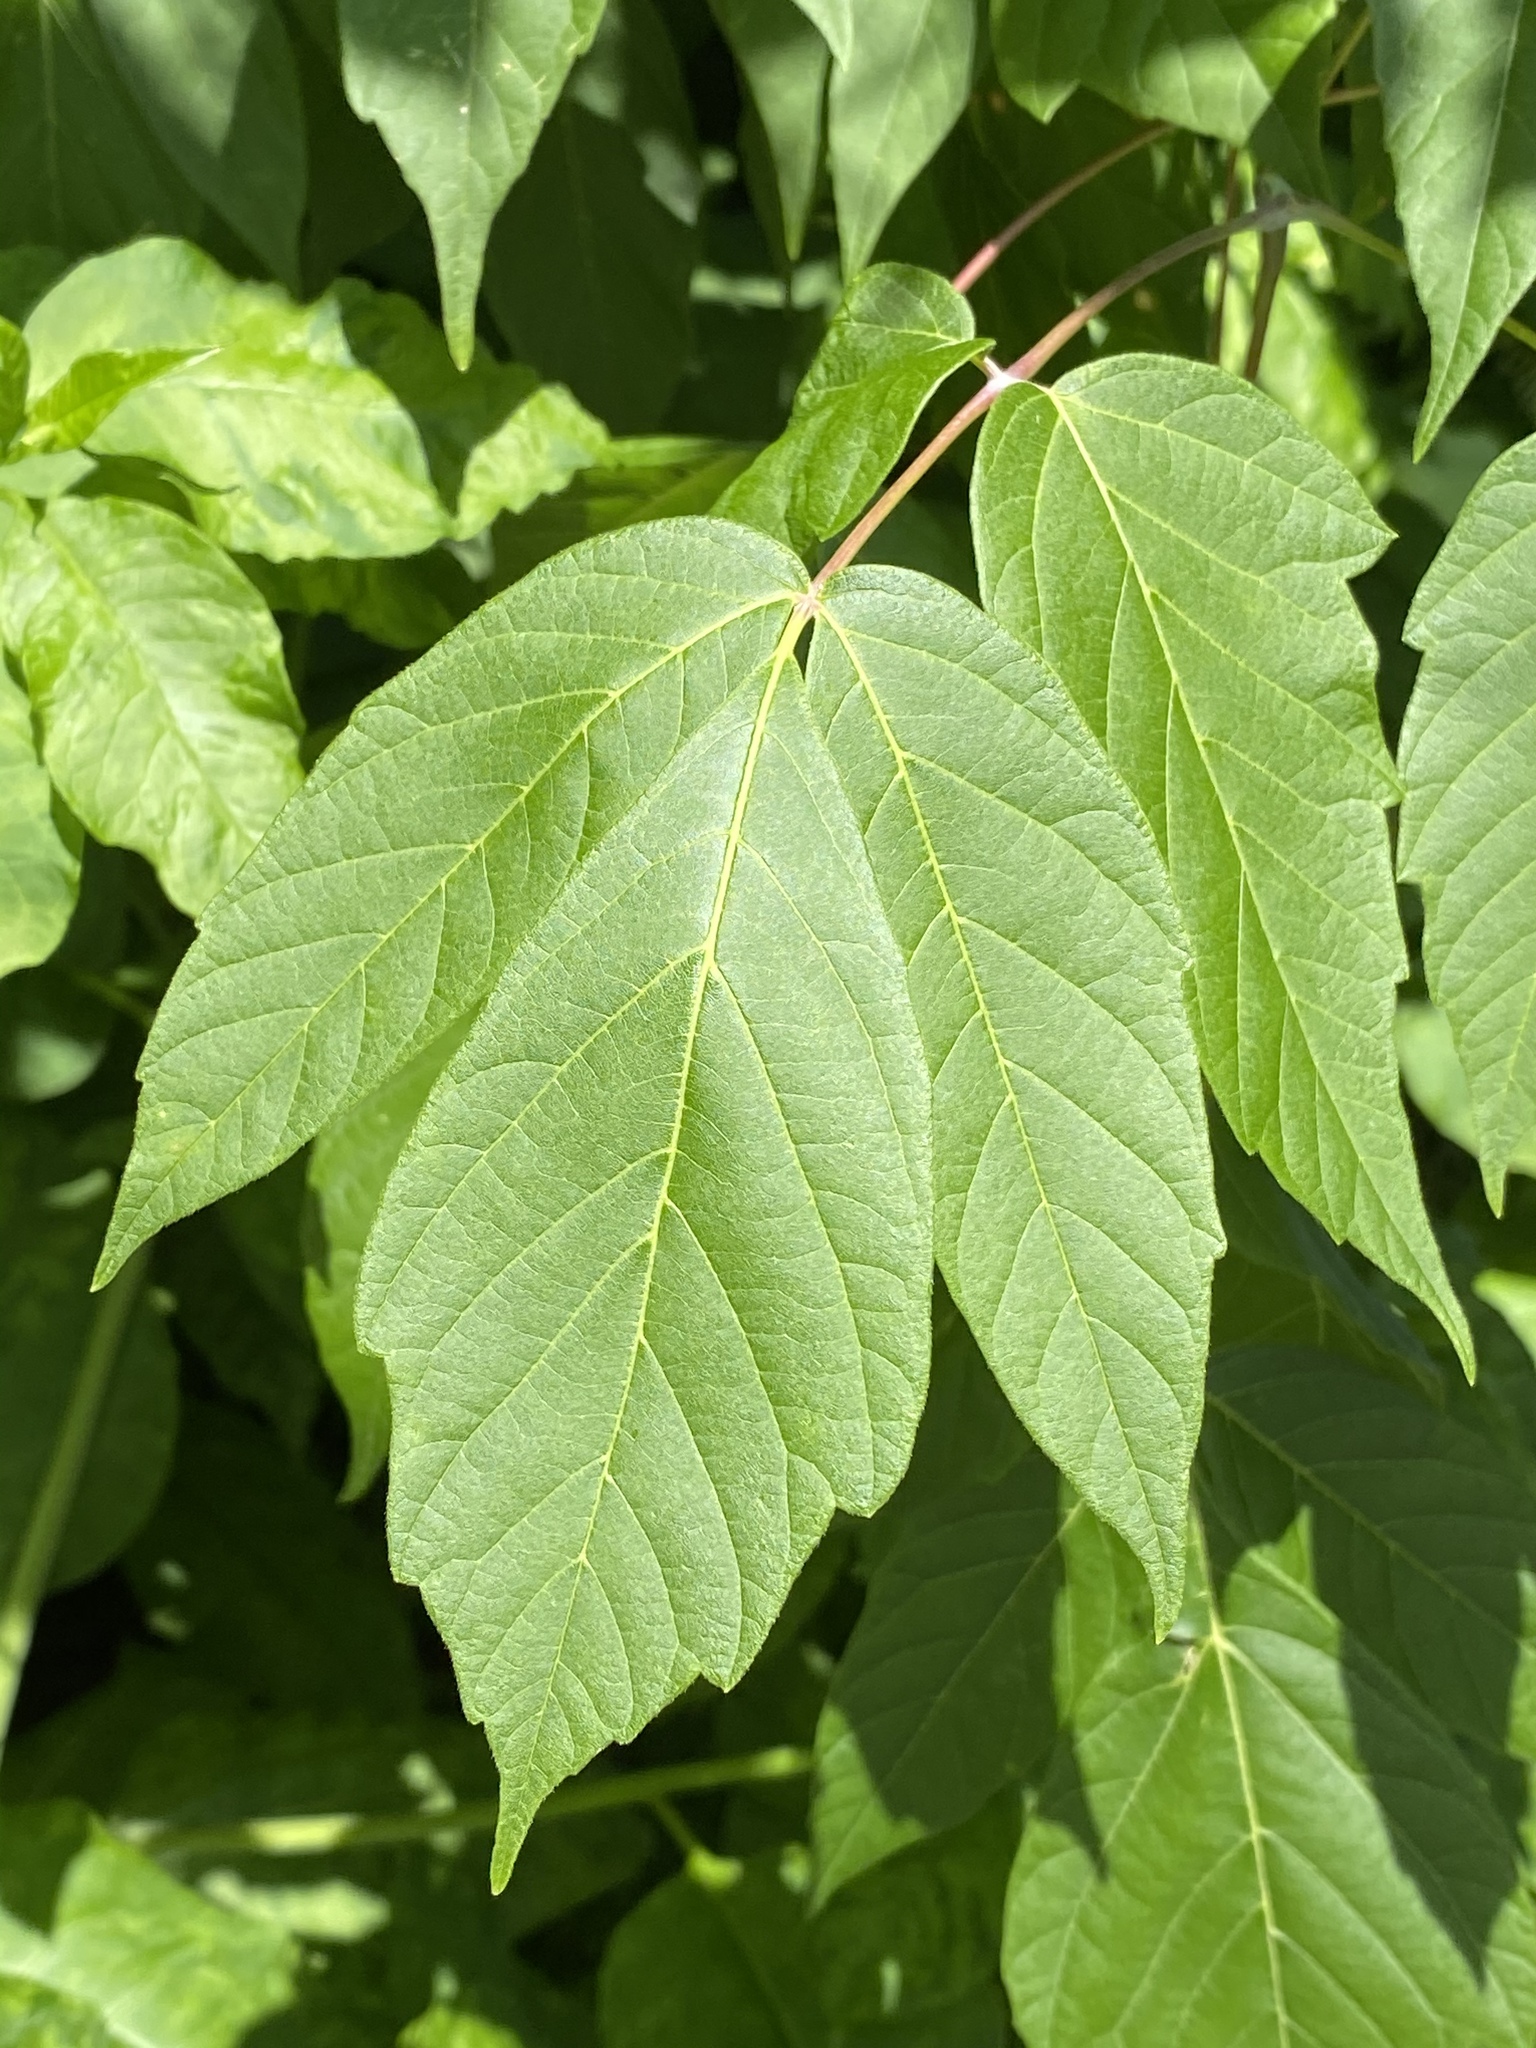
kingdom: Plantae
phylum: Tracheophyta
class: Magnoliopsida
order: Sapindales
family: Sapindaceae
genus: Acer
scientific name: Acer negundo
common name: Ashleaf maple
